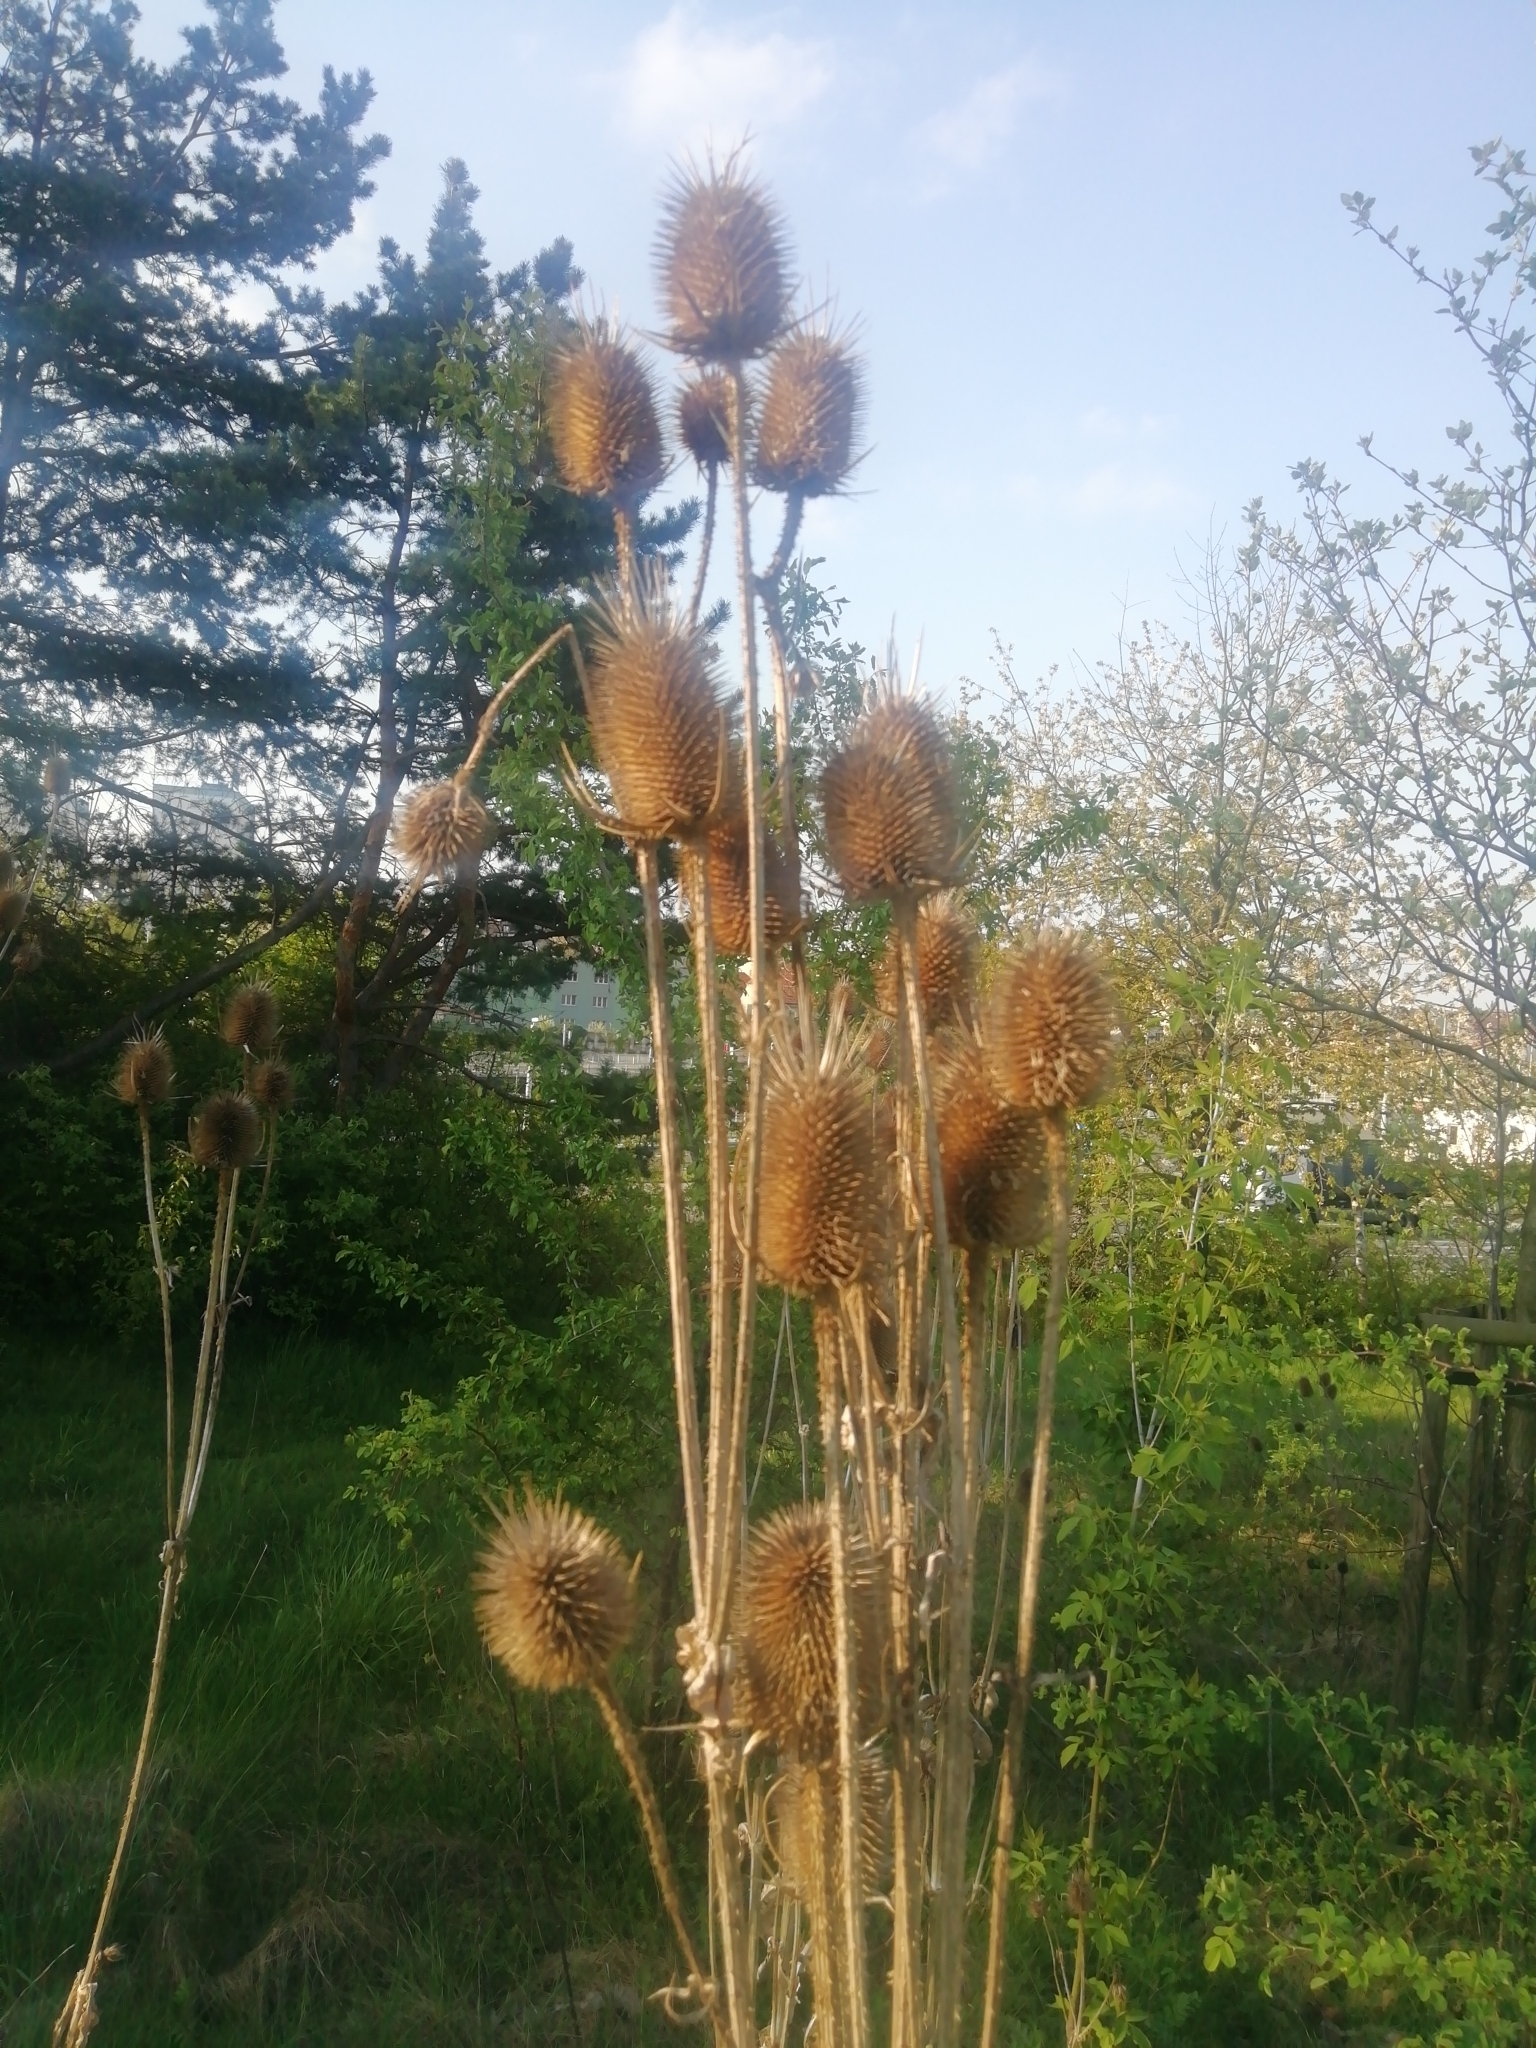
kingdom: Plantae
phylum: Tracheophyta
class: Magnoliopsida
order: Dipsacales
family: Caprifoliaceae
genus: Dipsacus
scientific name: Dipsacus laciniatus
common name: Cut-leaved teasel
